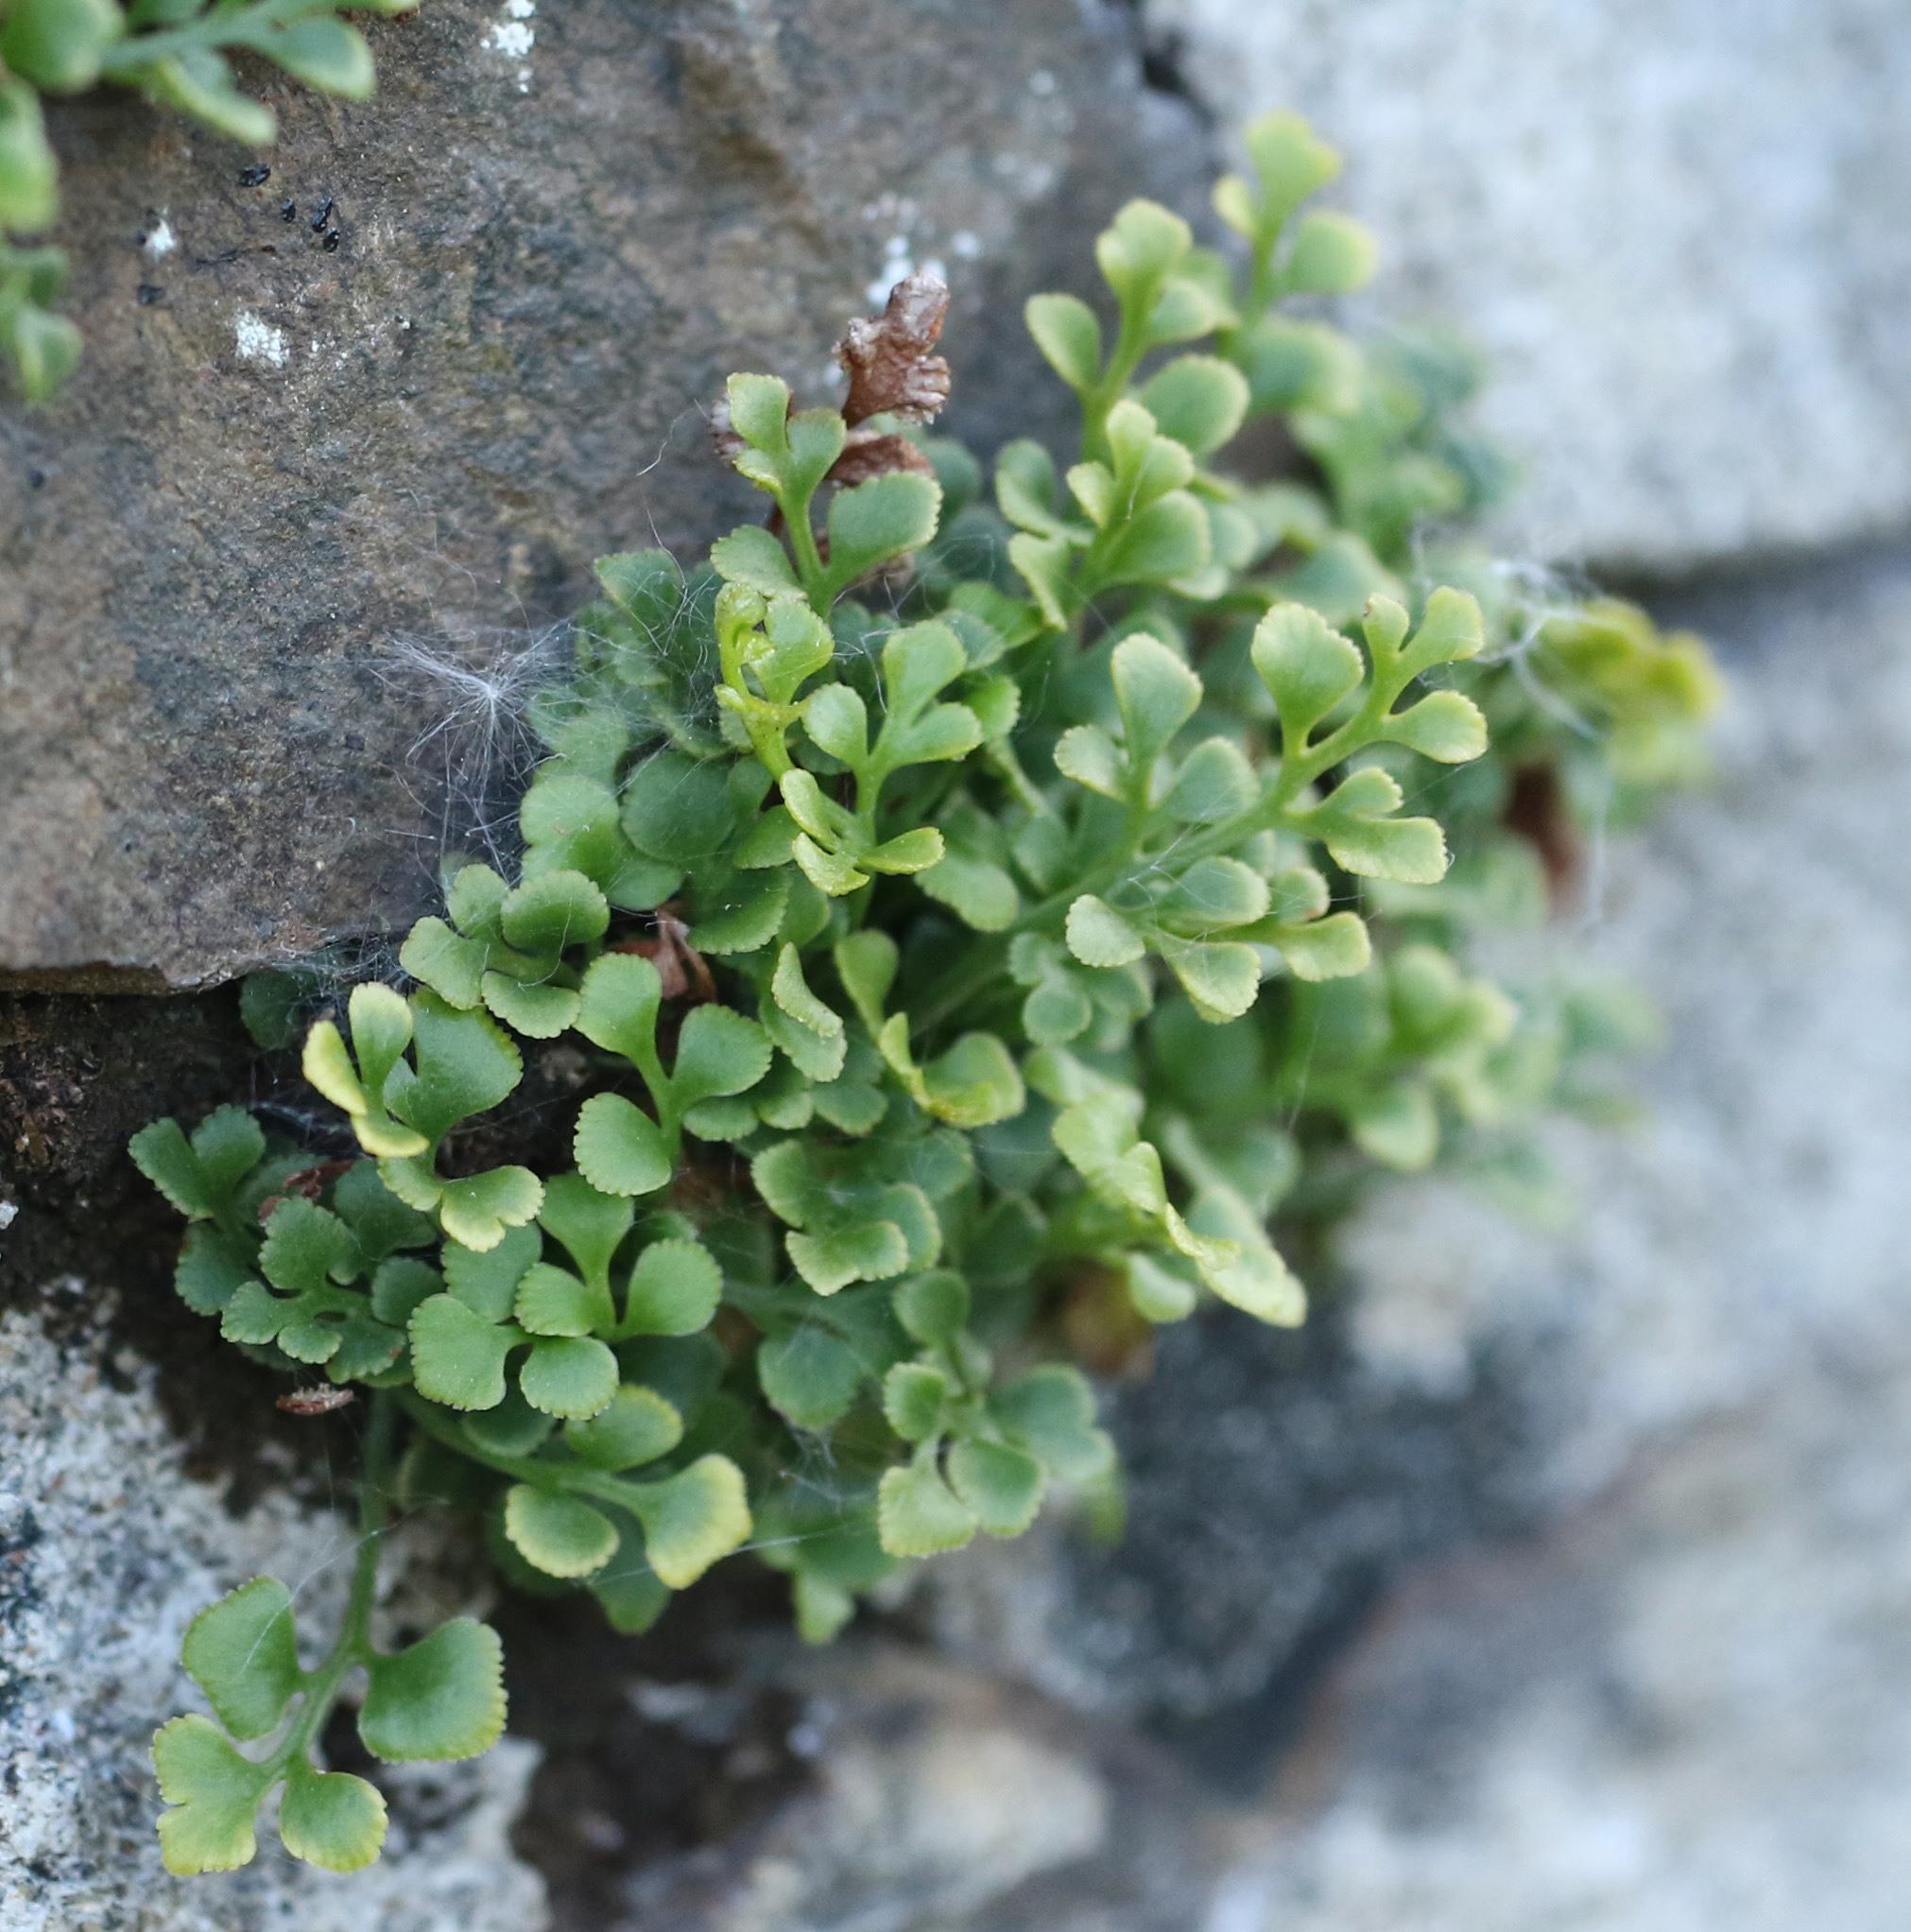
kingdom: Plantae
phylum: Tracheophyta
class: Polypodiopsida
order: Polypodiales
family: Aspleniaceae
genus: Asplenium
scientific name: Asplenium ruta-muraria
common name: Wall-rue
